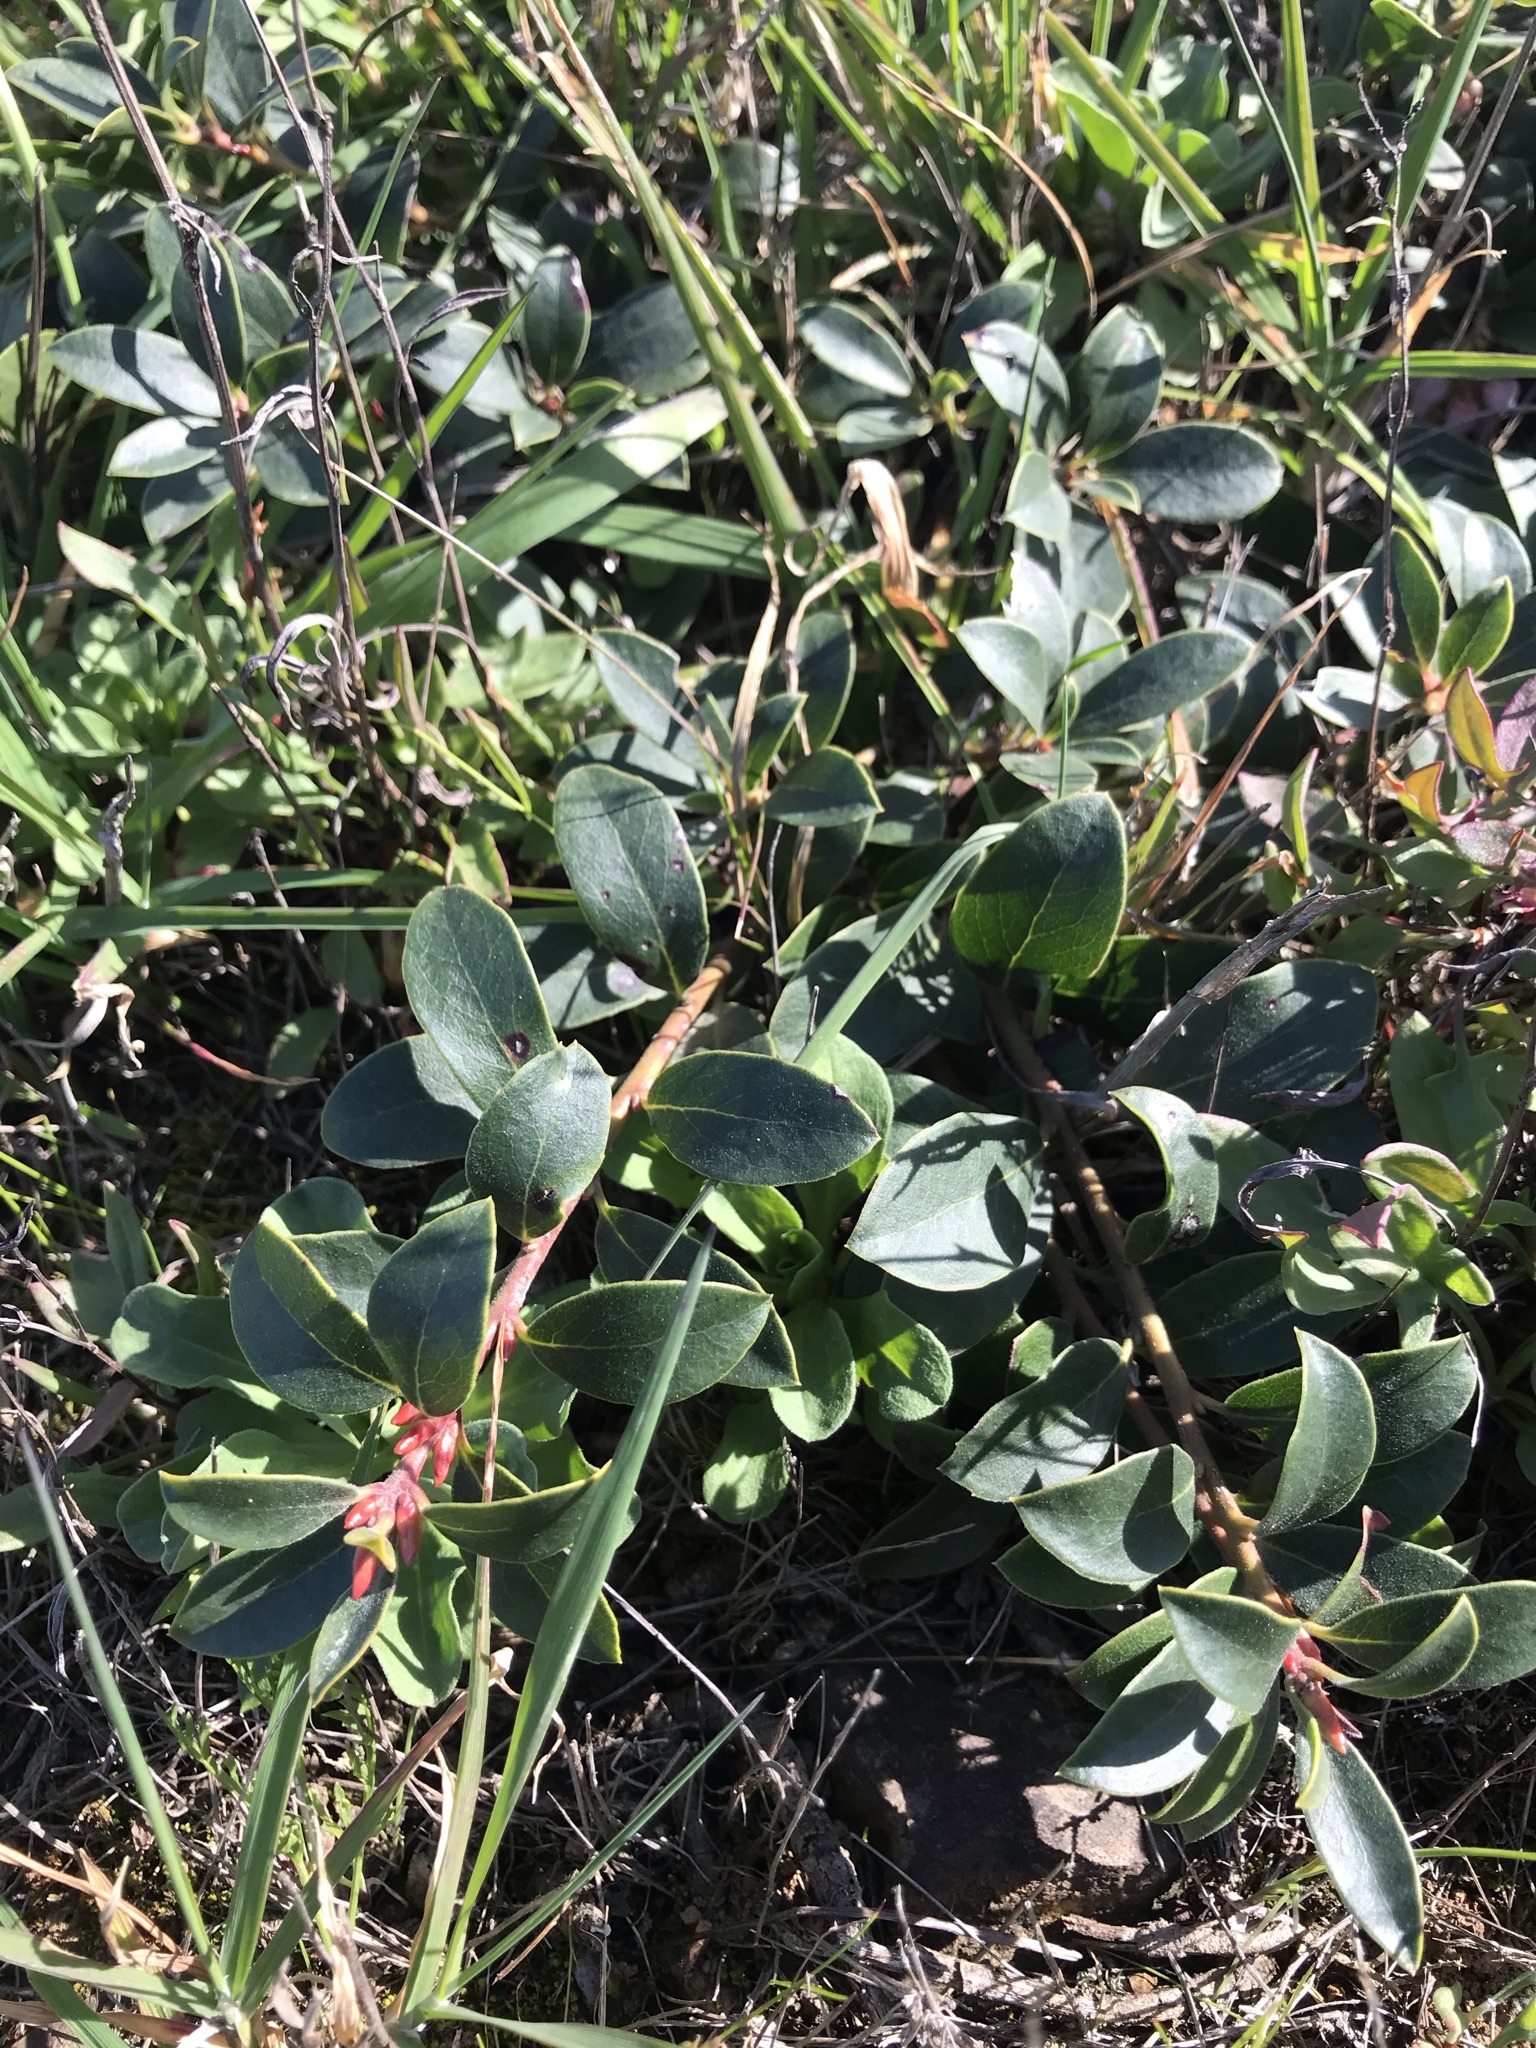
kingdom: Plantae
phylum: Tracheophyta
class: Magnoliopsida
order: Ericales
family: Ericaceae
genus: Arctostaphylos
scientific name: Arctostaphylos uva-ursi
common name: Bearberry
